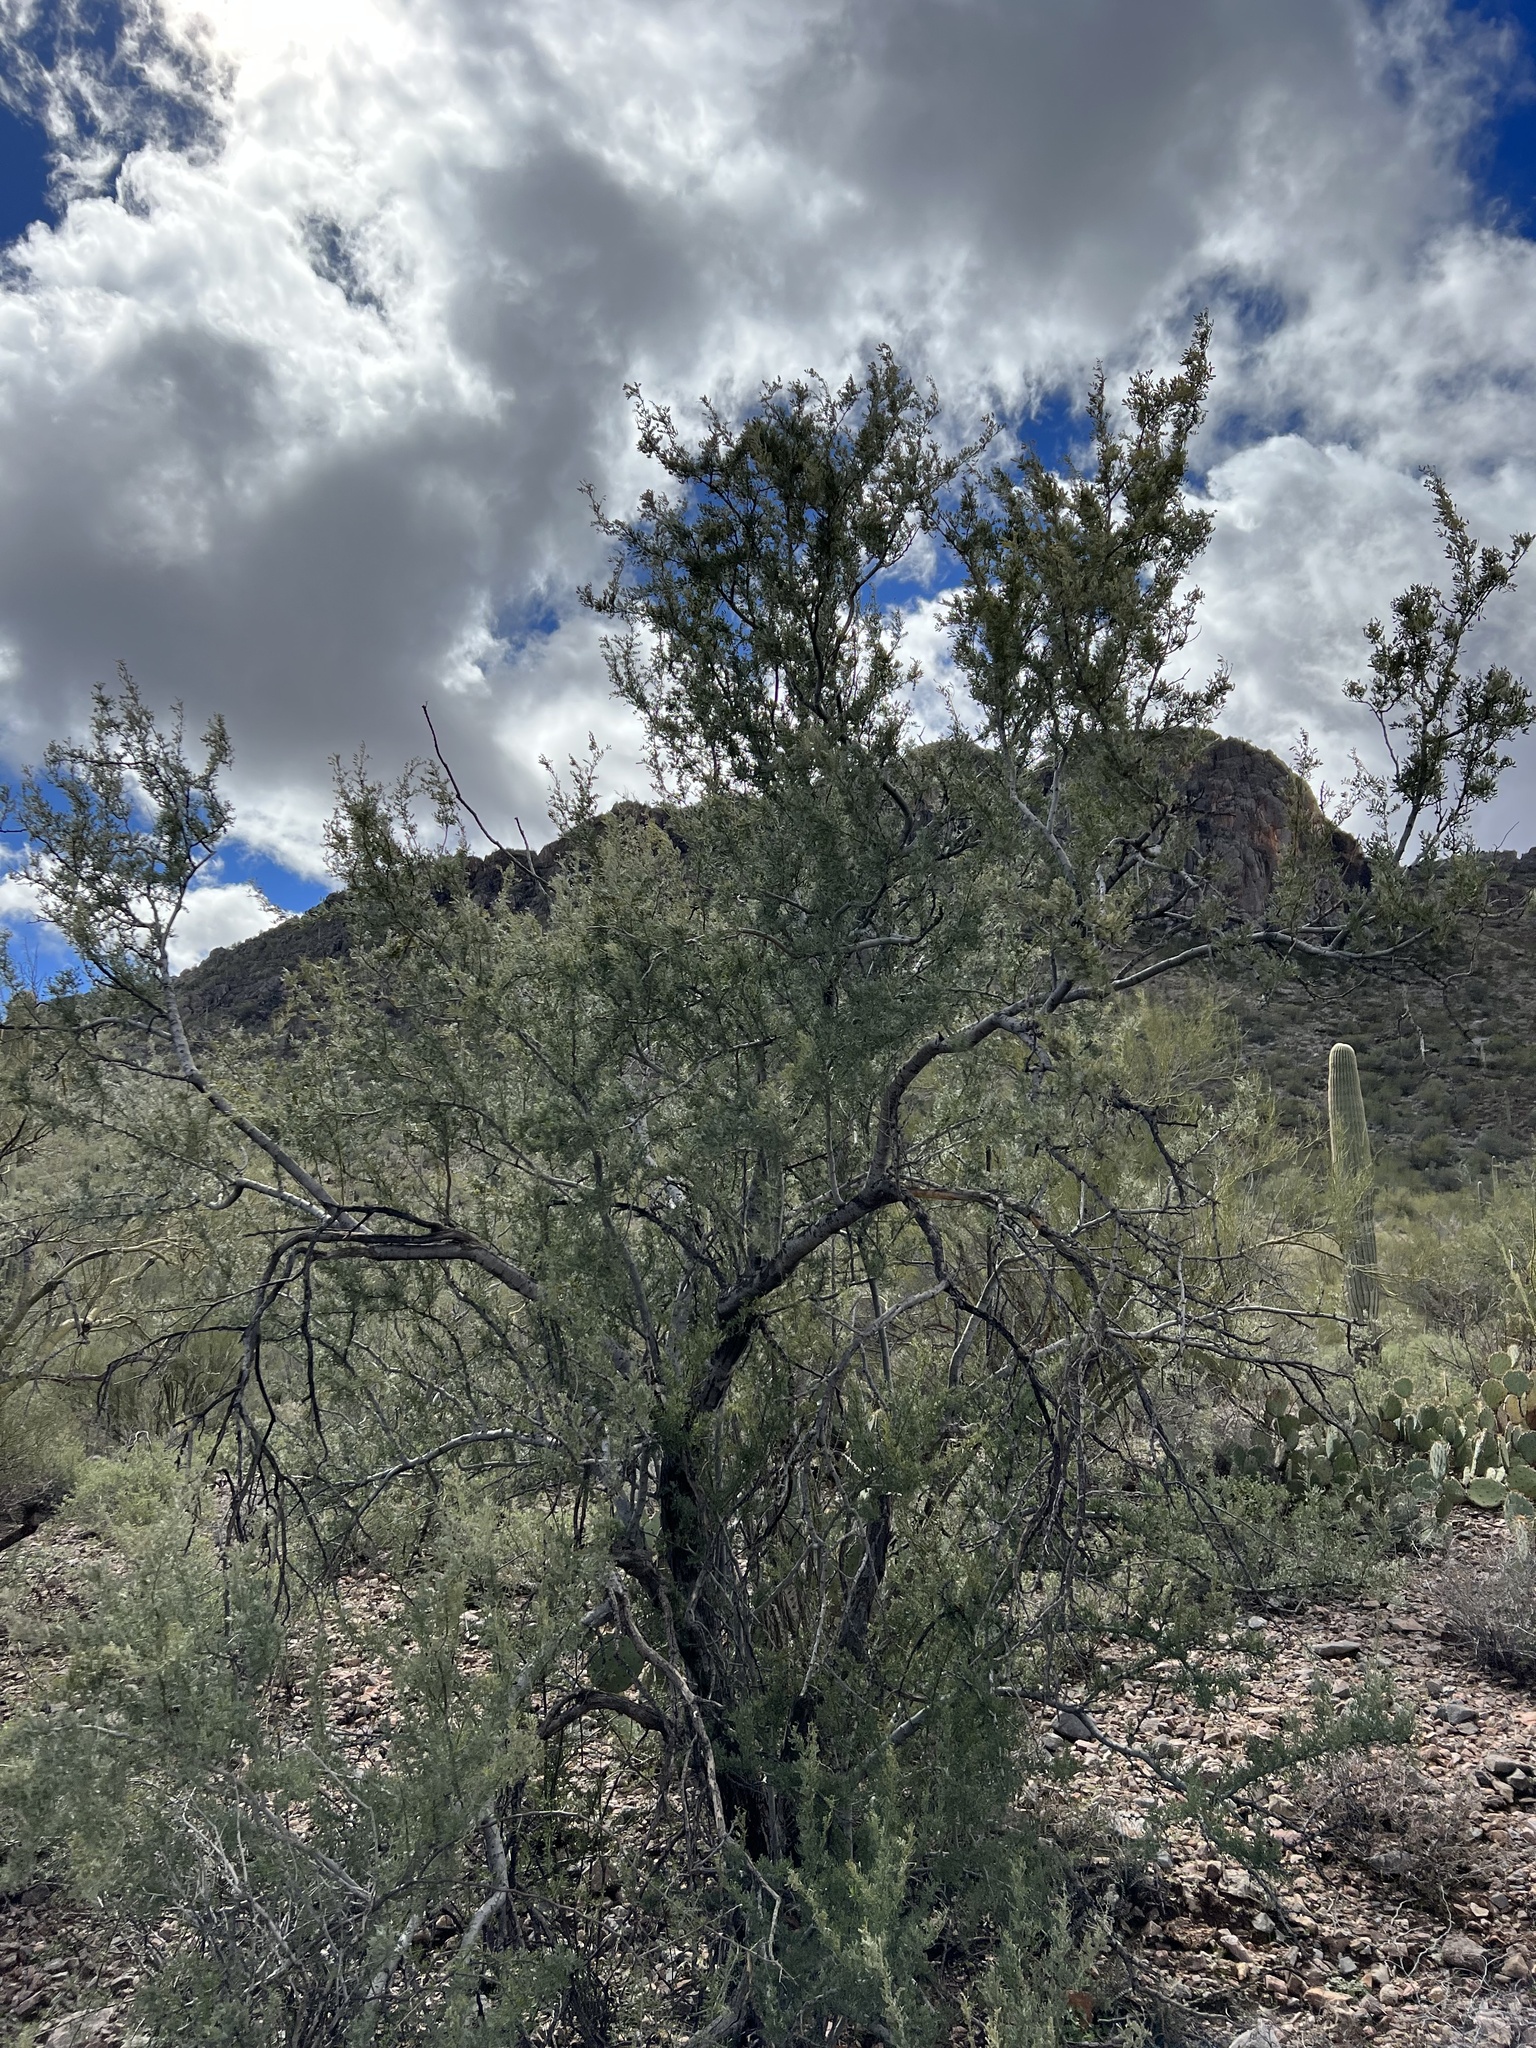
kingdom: Plantae
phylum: Tracheophyta
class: Magnoliopsida
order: Fabales
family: Fabaceae
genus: Olneya
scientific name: Olneya tesota
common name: Desert ironwood
